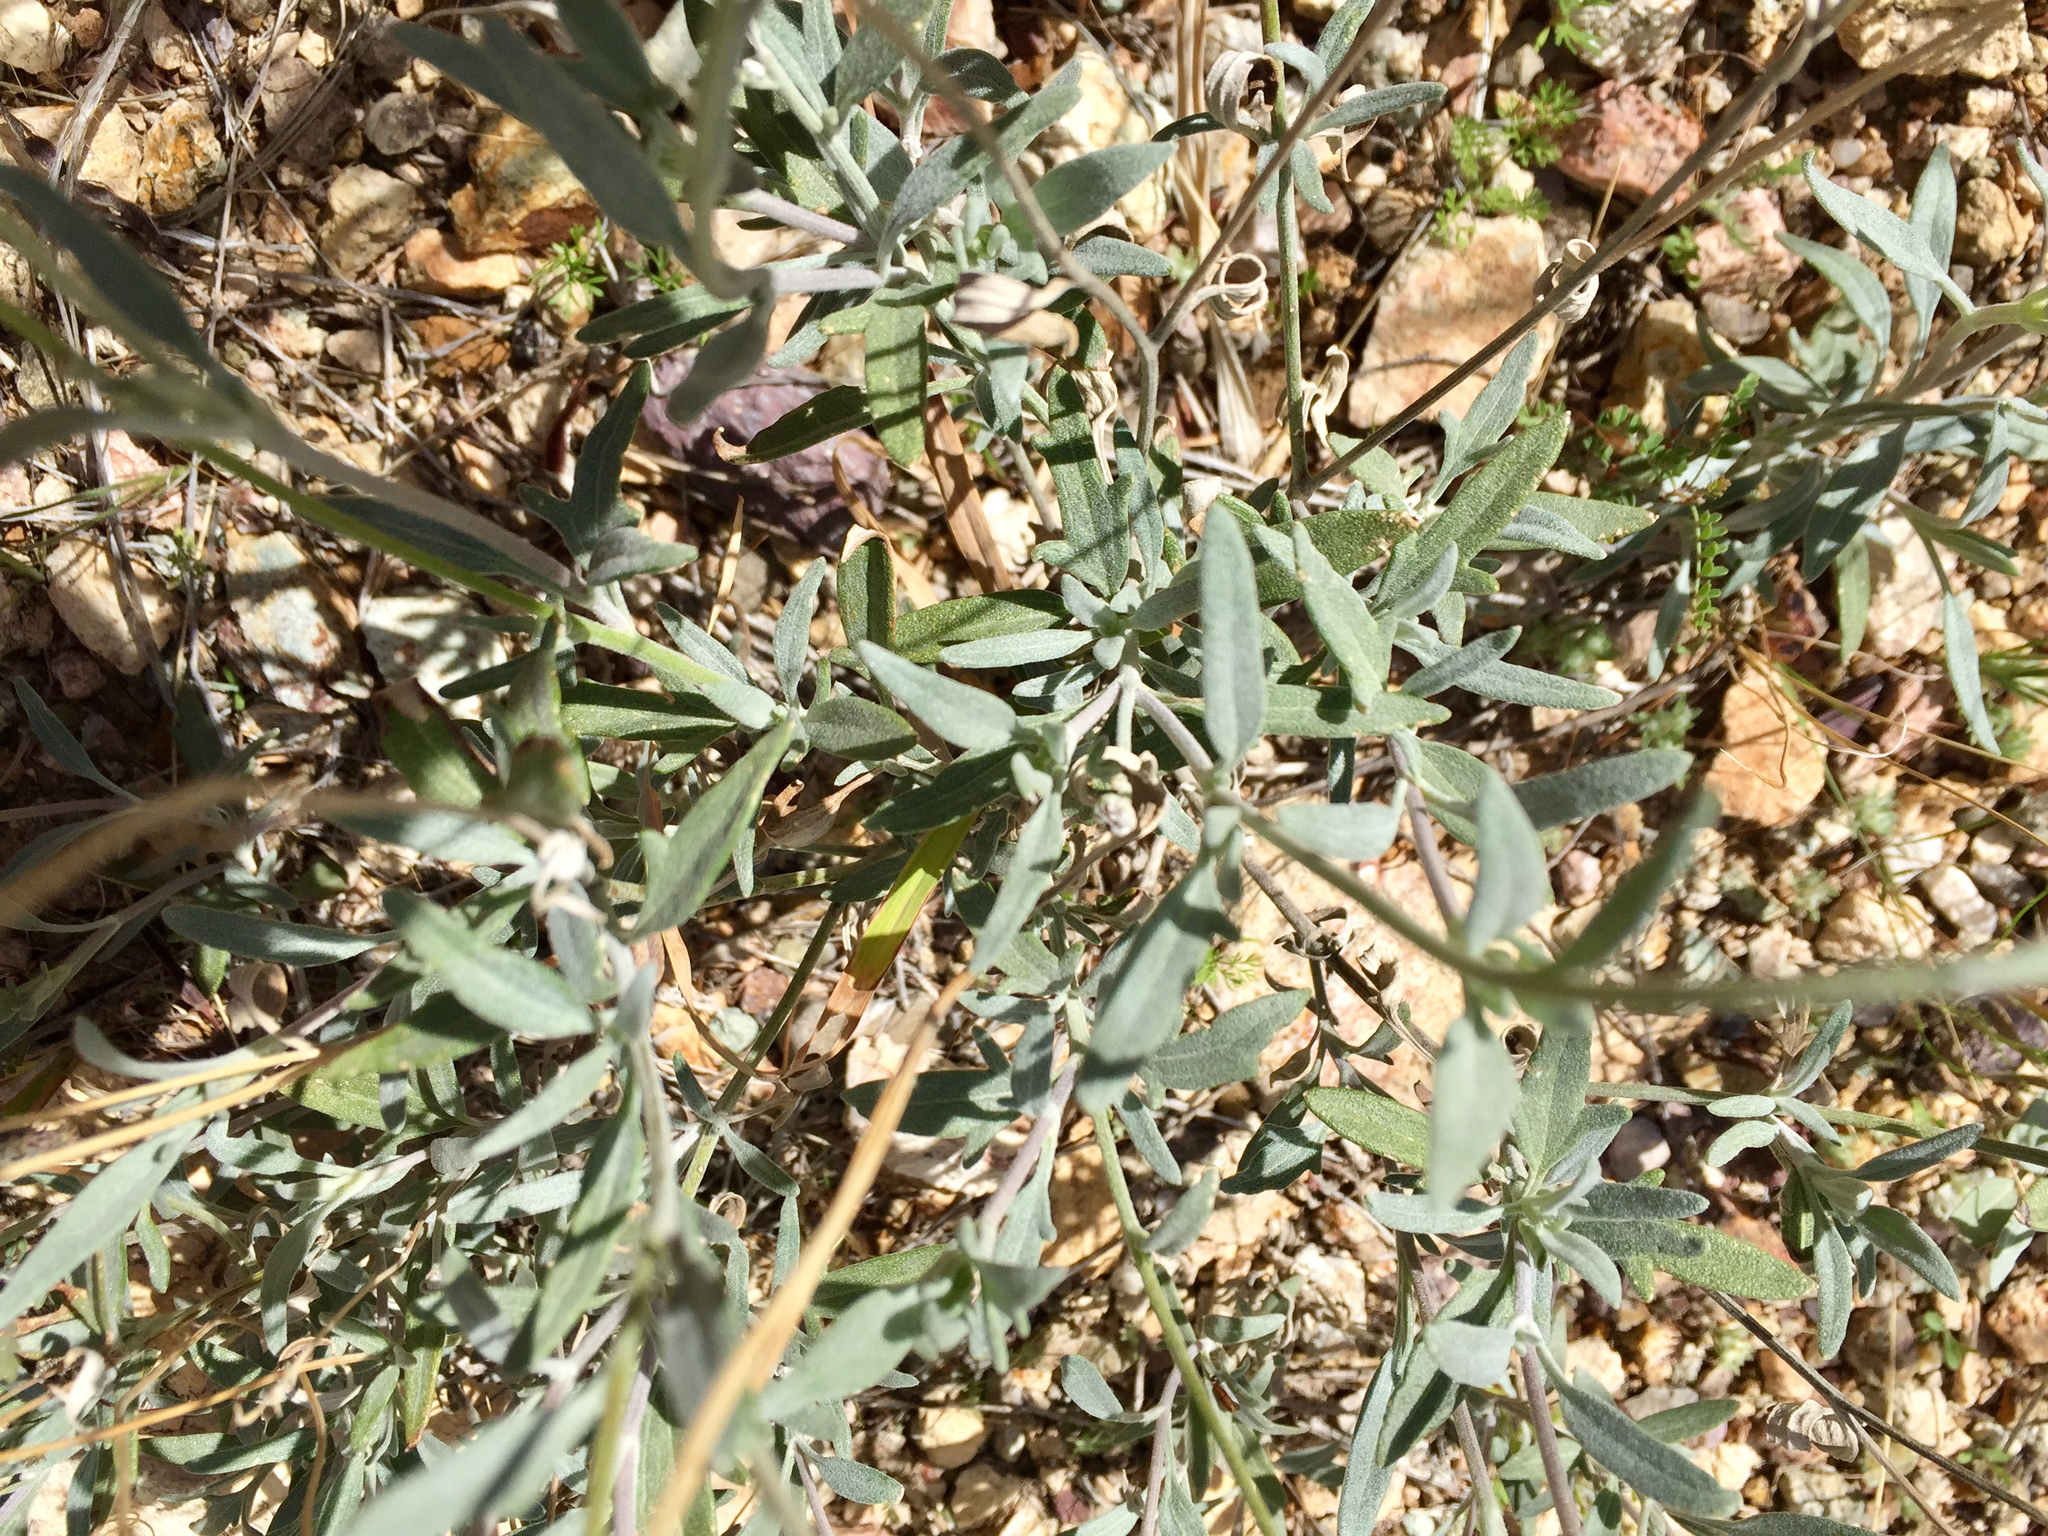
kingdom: Plantae
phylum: Tracheophyta
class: Magnoliopsida
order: Asterales
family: Asteraceae
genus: Picradeniopsis
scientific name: Picradeniopsis absinthifolia
